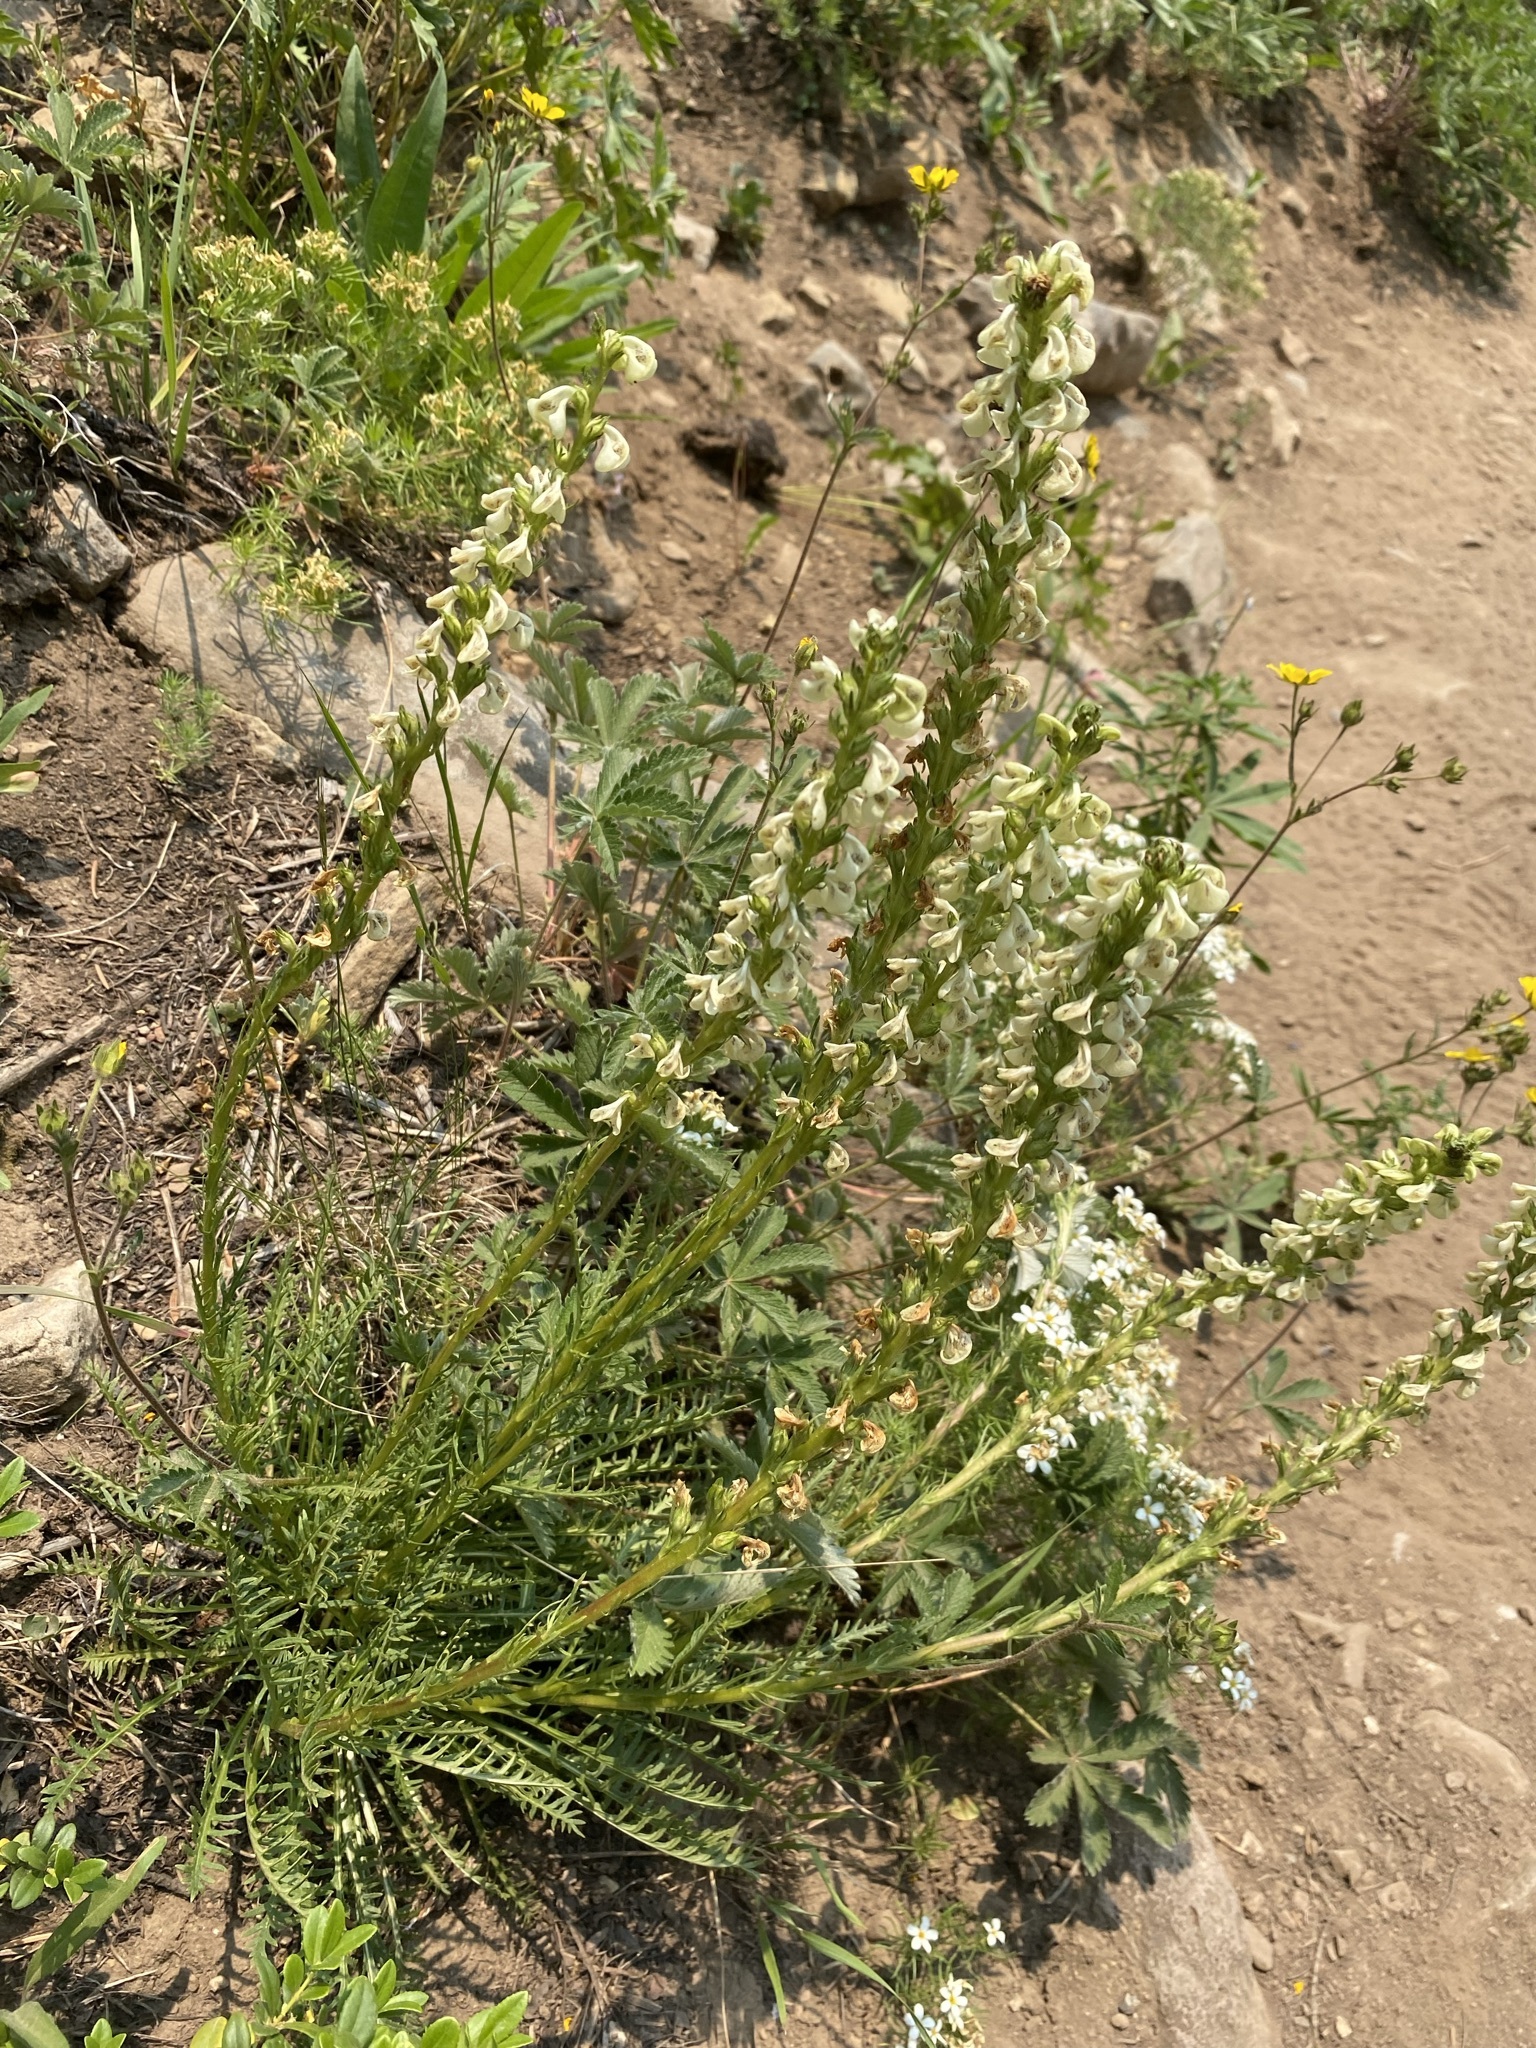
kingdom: Plantae
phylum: Tracheophyta
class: Magnoliopsida
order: Lamiales
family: Orobanchaceae
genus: Pedicularis
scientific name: Pedicularis contorta
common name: Coiled lousewort
